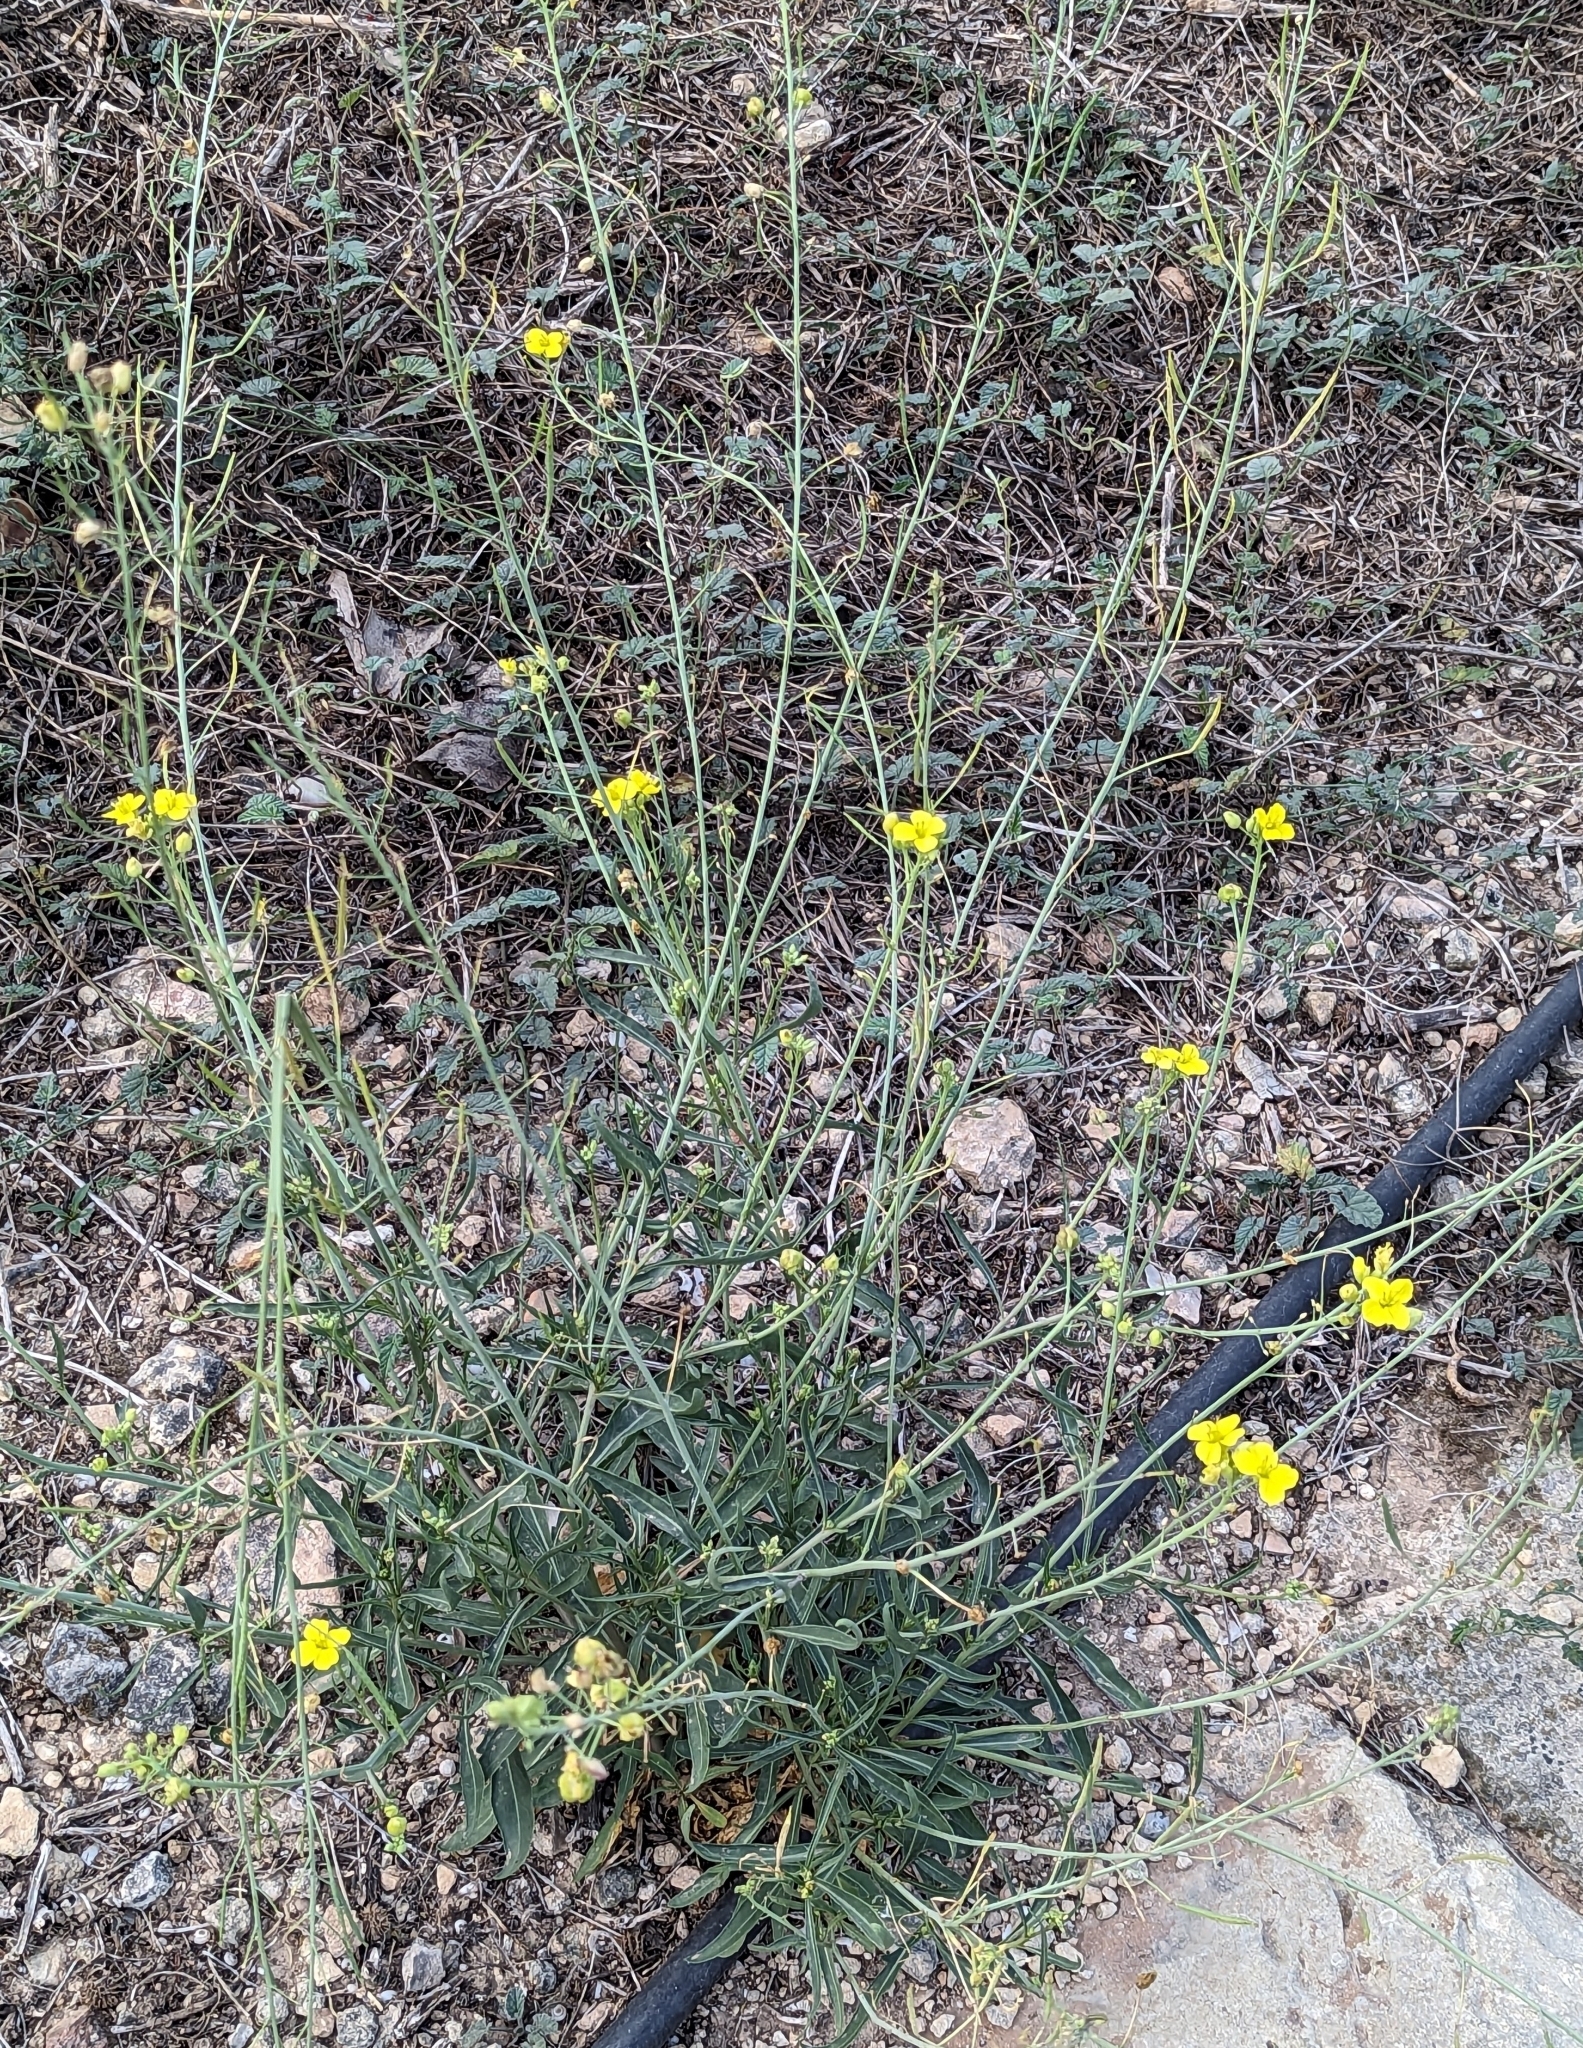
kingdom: Plantae
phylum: Tracheophyta
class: Magnoliopsida
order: Brassicales
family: Brassicaceae
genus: Diplotaxis
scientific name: Diplotaxis tenuifolia
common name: Perennial wall-rocket
